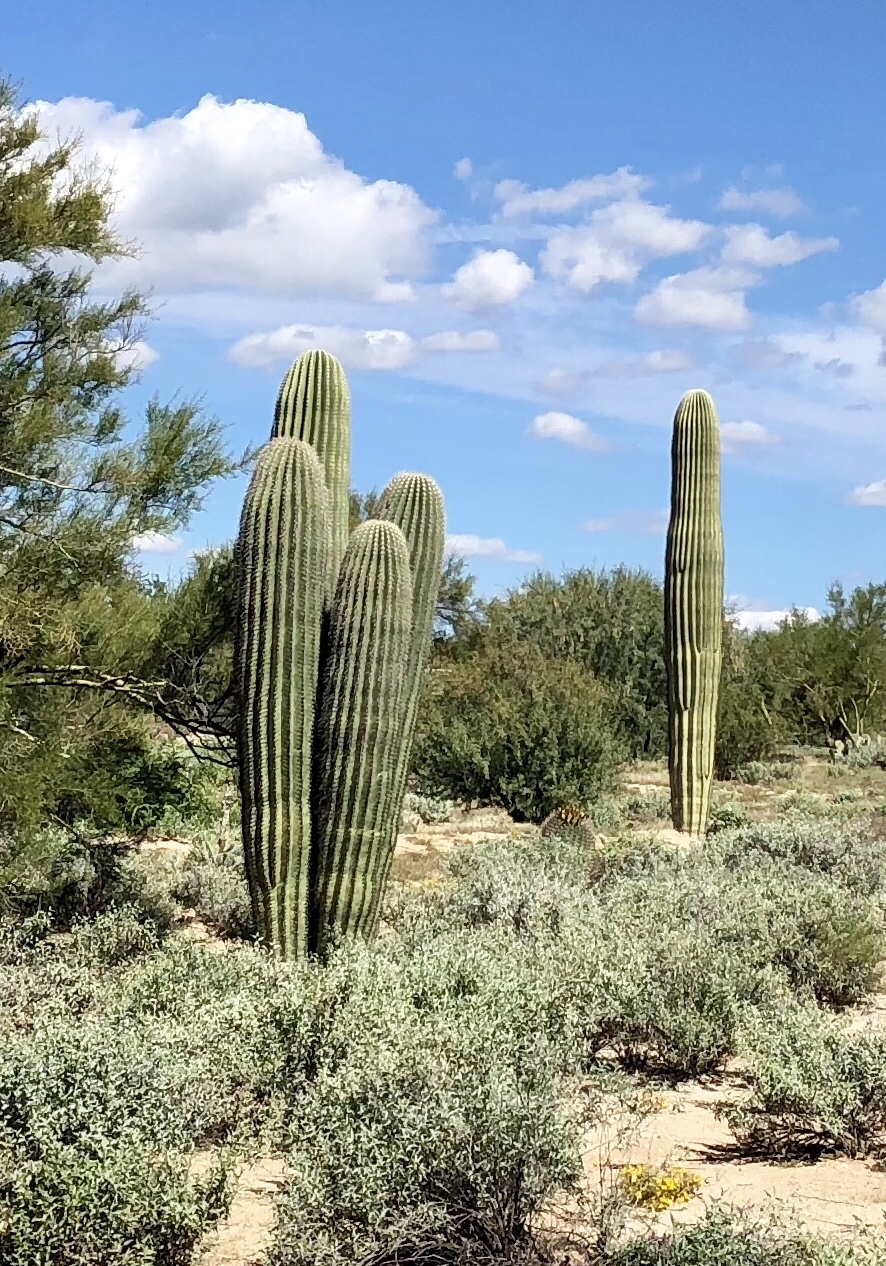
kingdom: Plantae
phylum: Tracheophyta
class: Magnoliopsida
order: Caryophyllales
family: Cactaceae
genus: Carnegiea
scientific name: Carnegiea gigantea
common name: Saguaro
